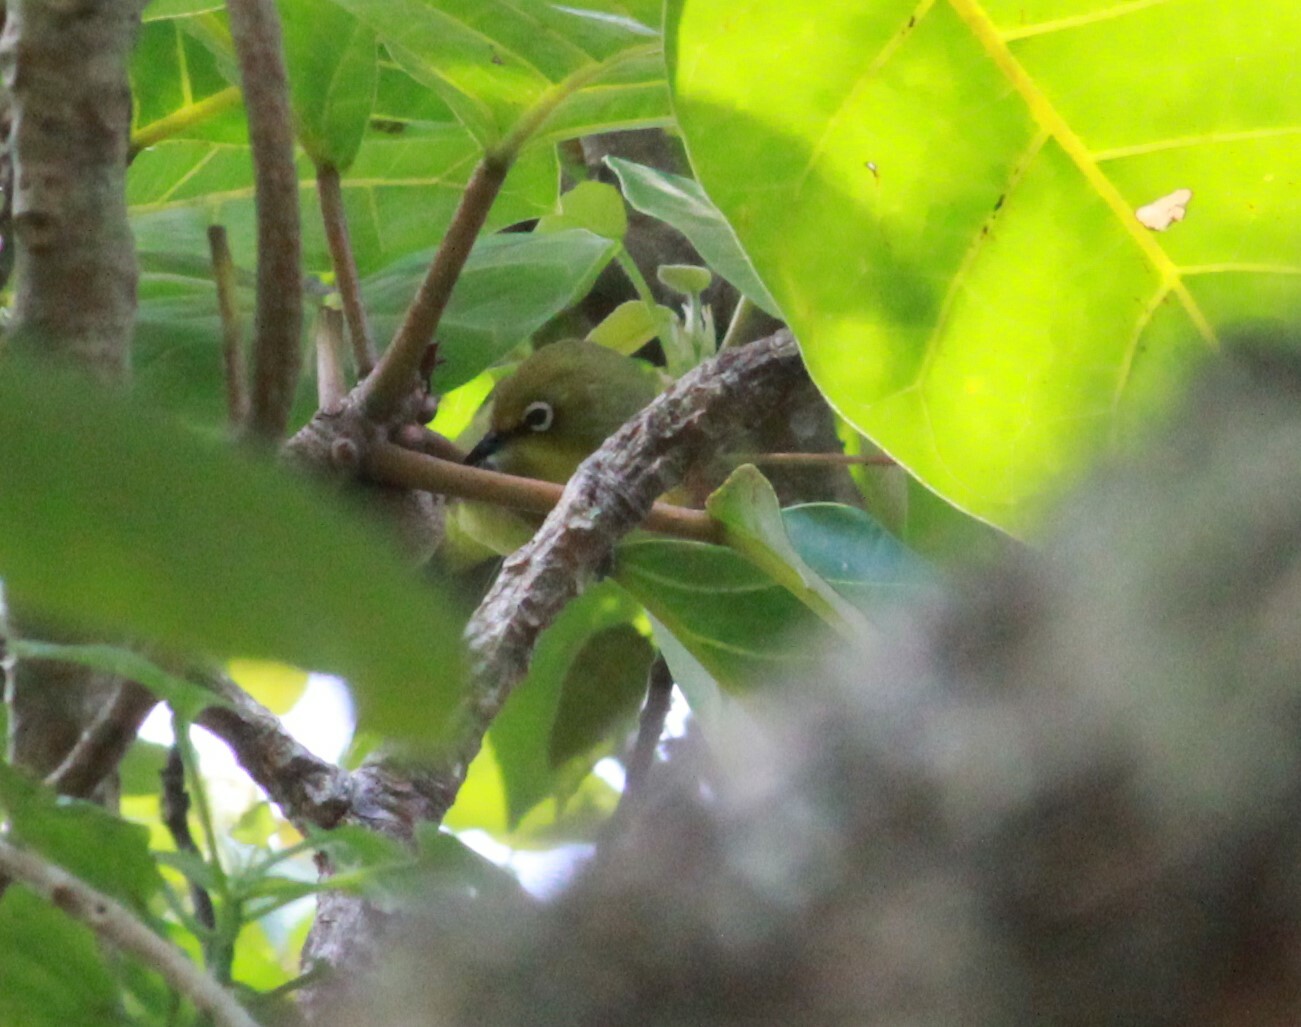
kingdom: Animalia
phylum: Chordata
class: Aves
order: Passeriformes
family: Zosteropidae
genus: Zosterops
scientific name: Zosterops virens
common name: Cape white-eye
